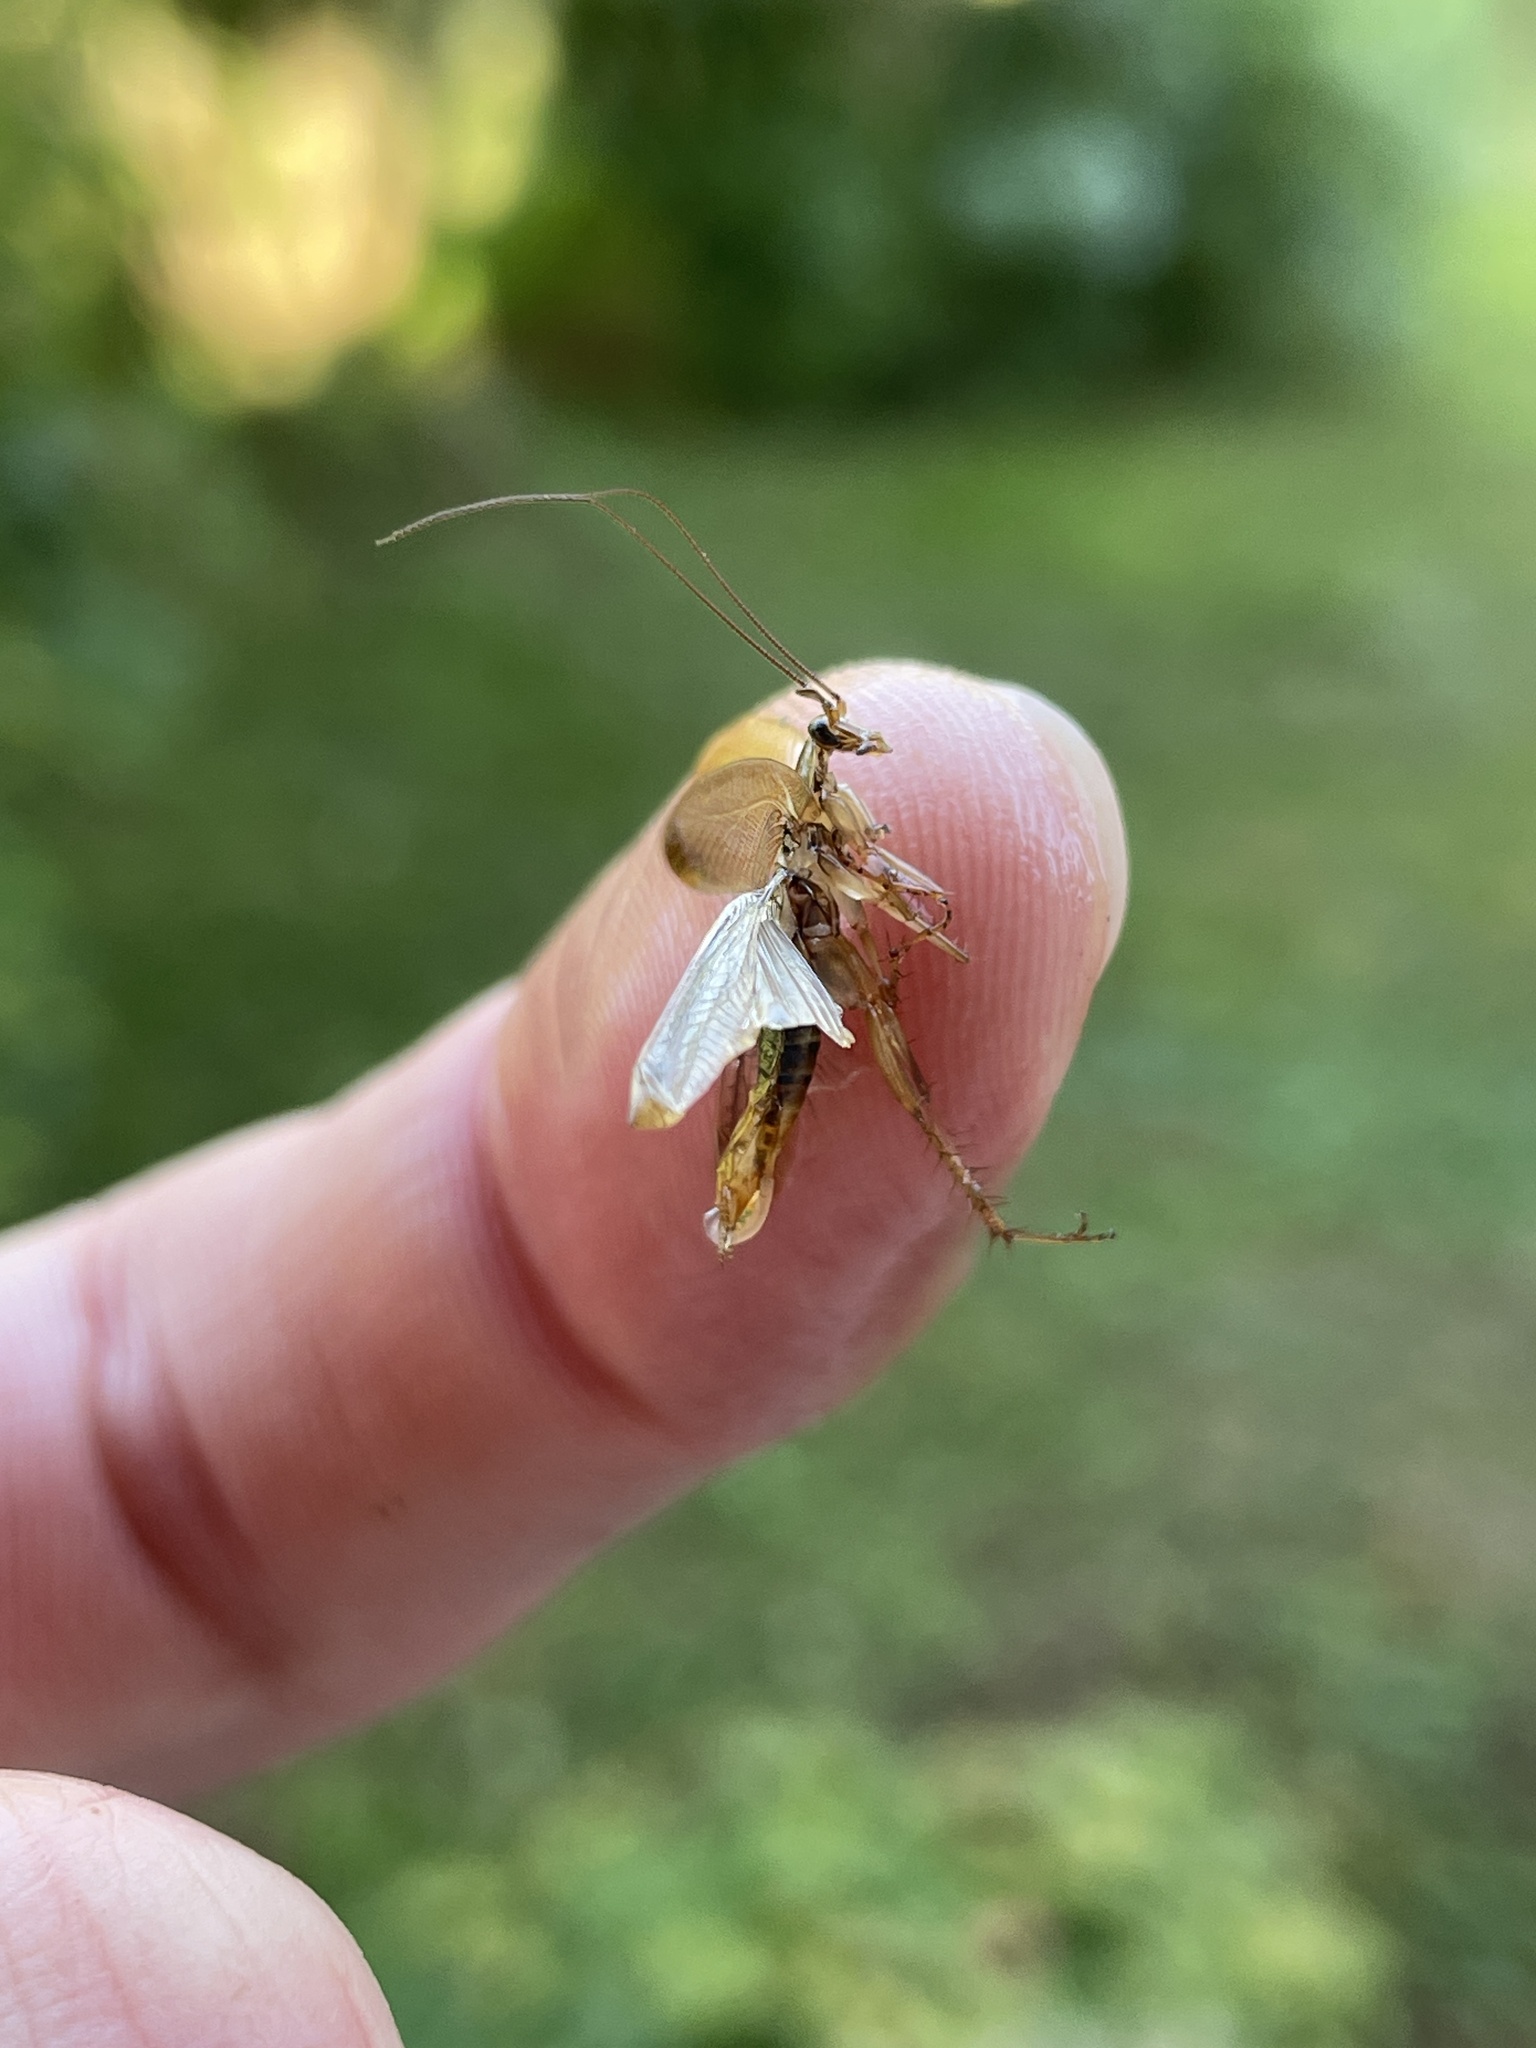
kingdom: Animalia
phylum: Arthropoda
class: Insecta
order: Blattodea
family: Ectobiidae
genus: Ectobius
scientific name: Ectobius vittiventris
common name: Garden cockroach
